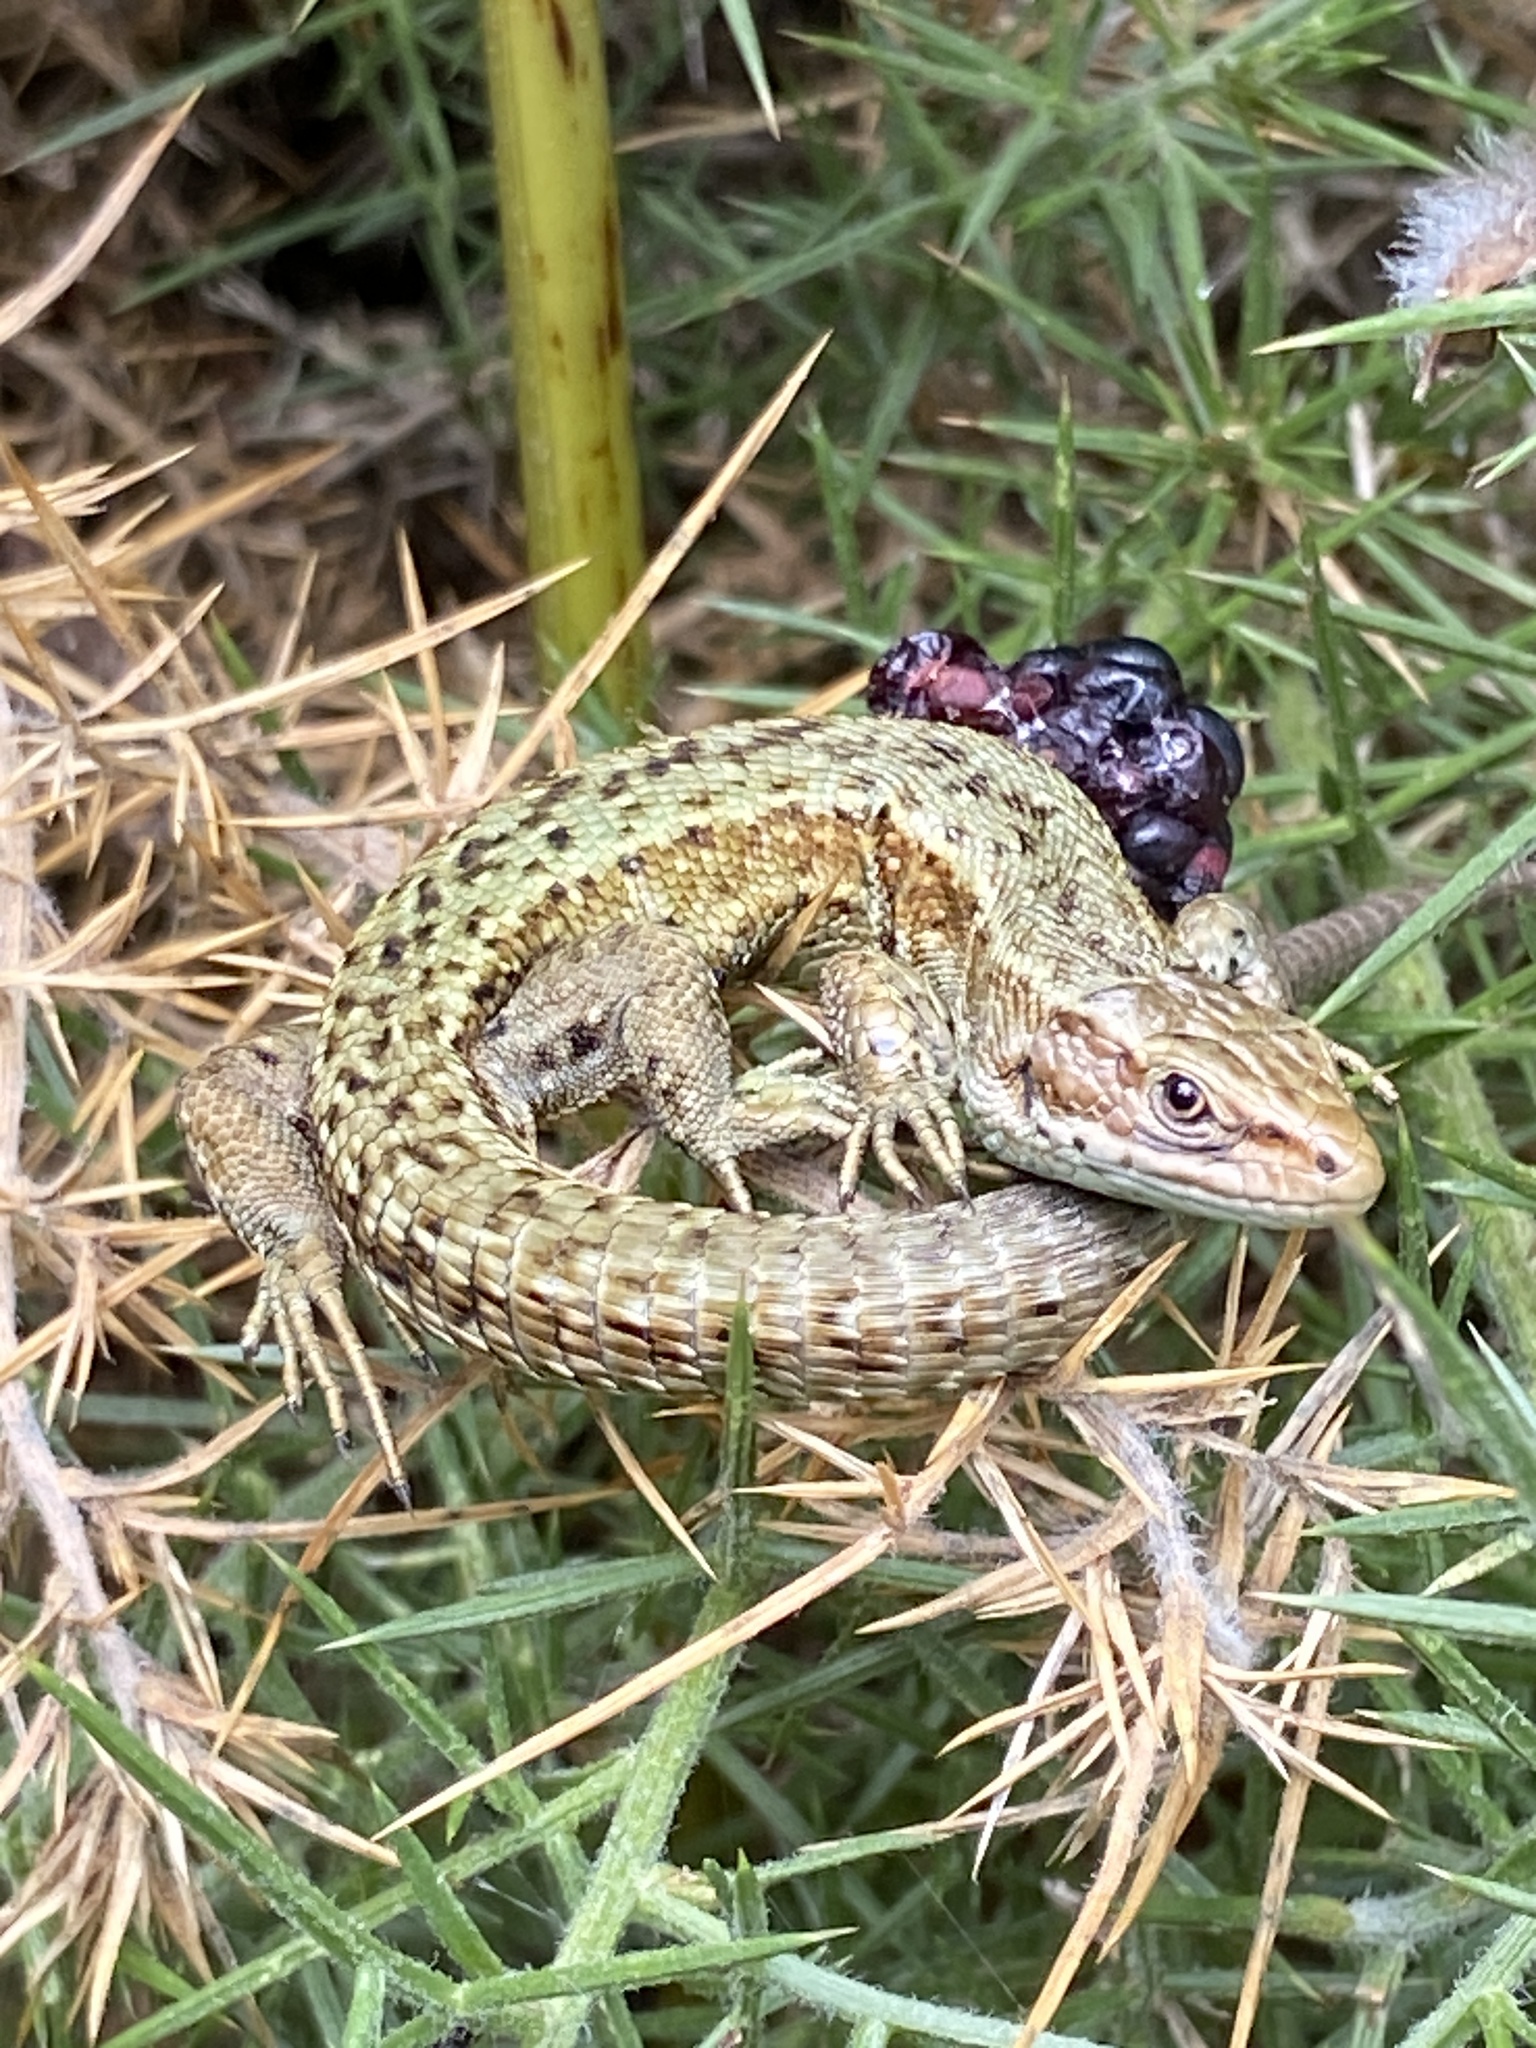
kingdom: Animalia
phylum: Chordata
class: Squamata
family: Lacertidae
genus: Zootoca
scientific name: Zootoca vivipara
